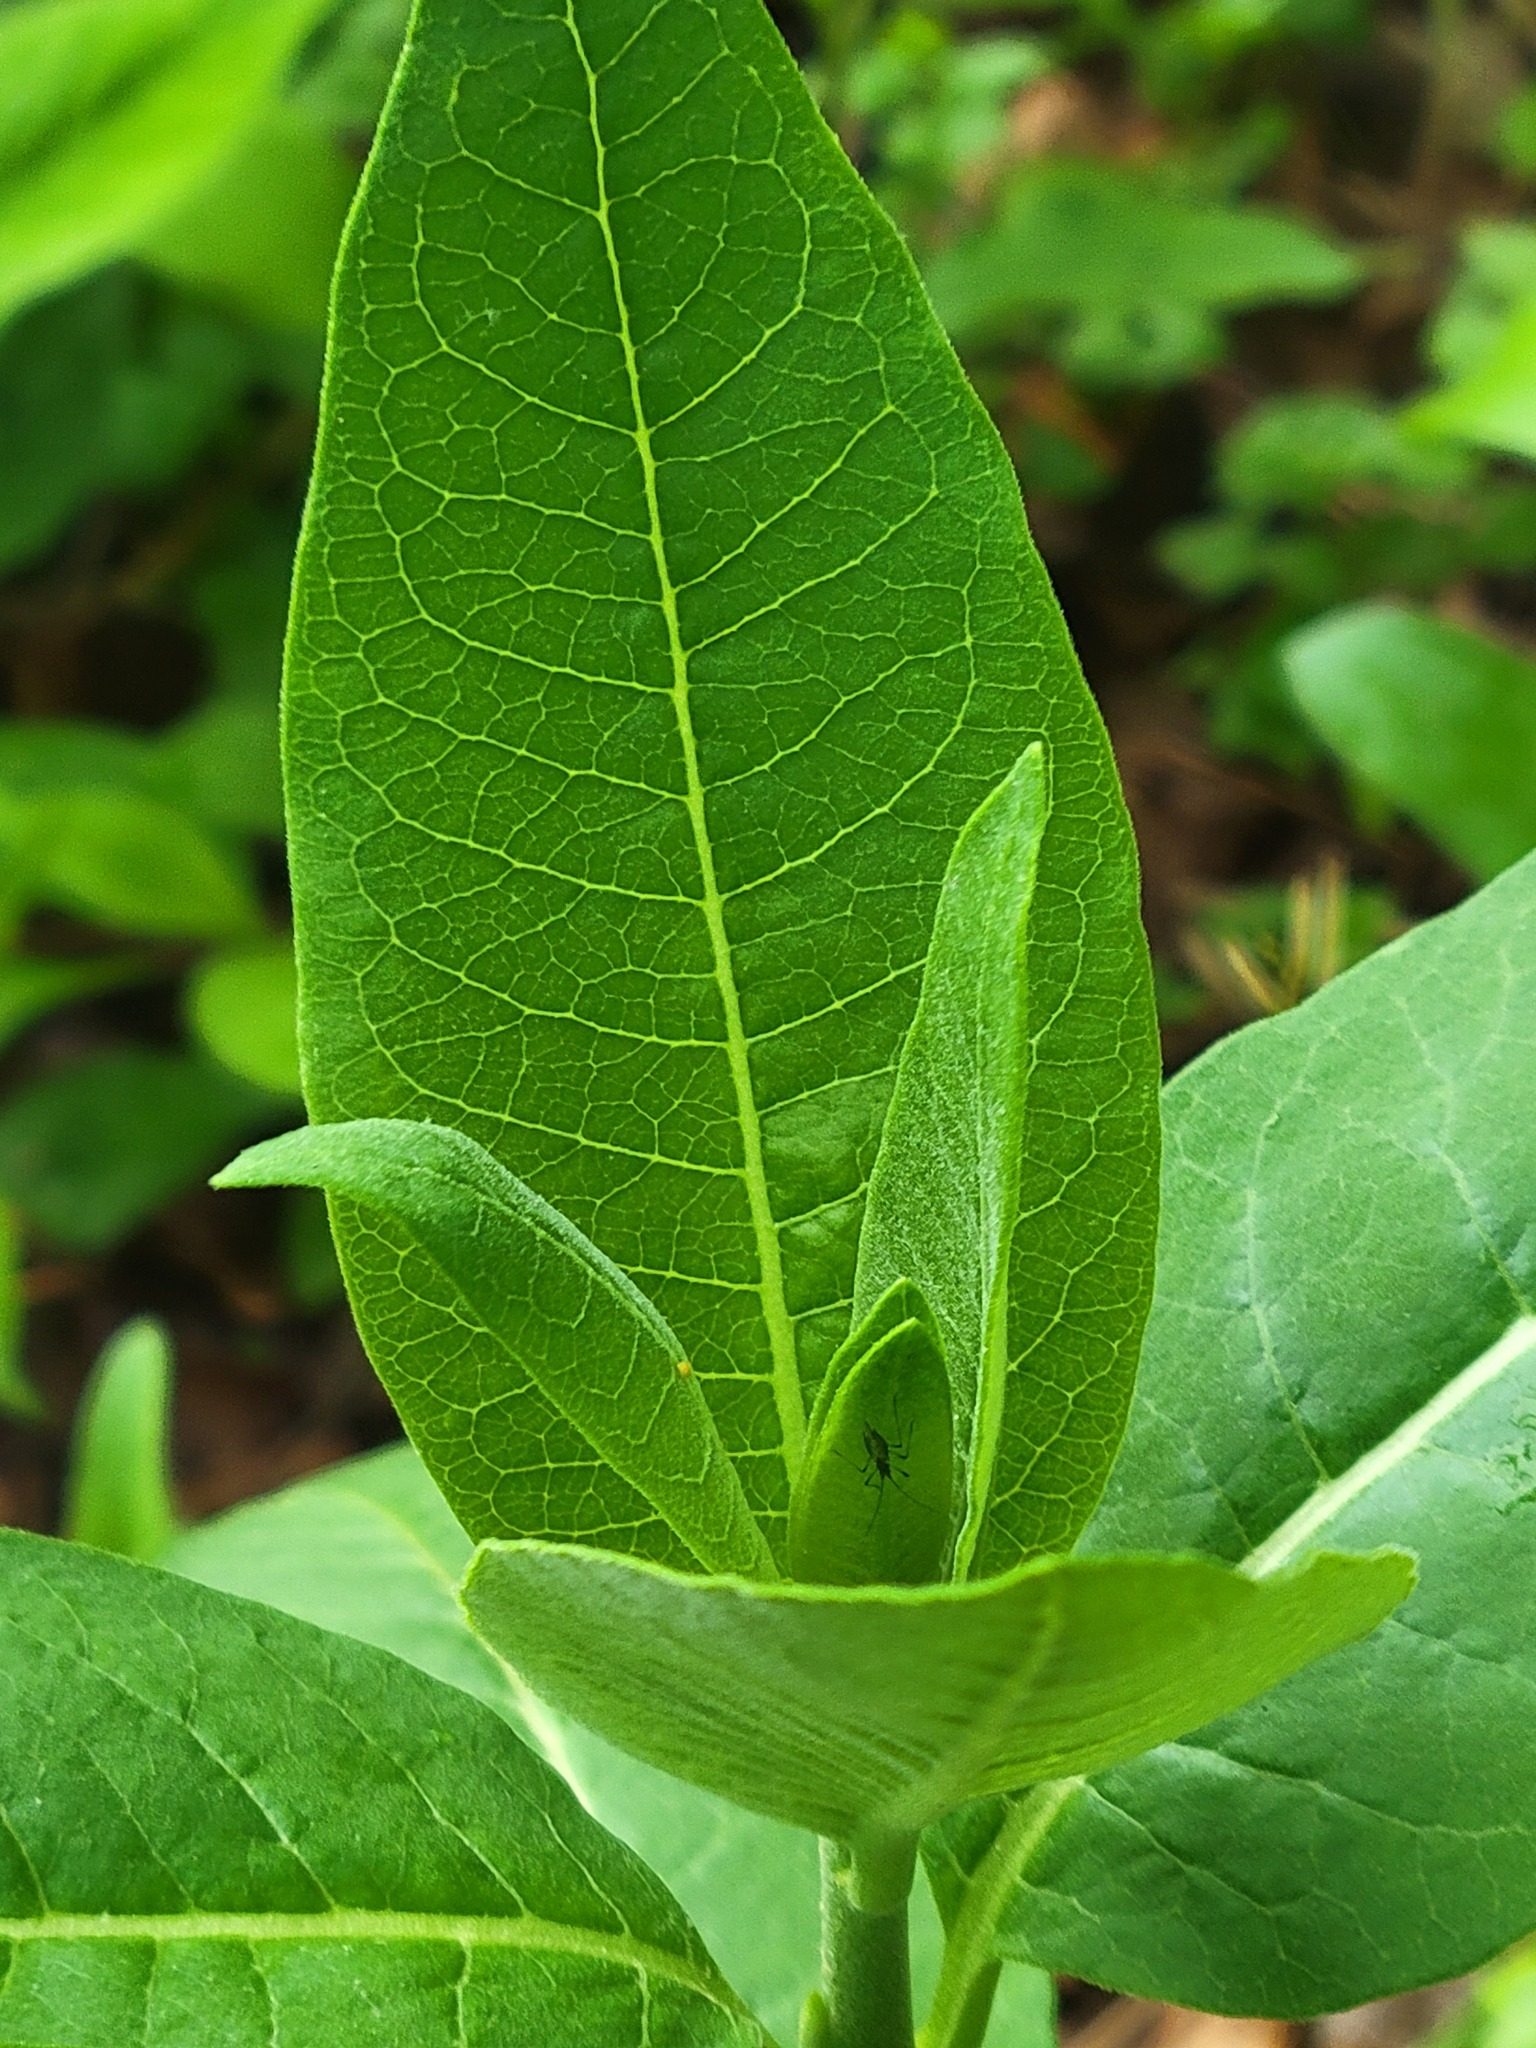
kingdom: Plantae
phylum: Tracheophyta
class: Magnoliopsida
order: Gentianales
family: Apocynaceae
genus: Asclepias
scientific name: Asclepias syriaca
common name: Common milkweed
